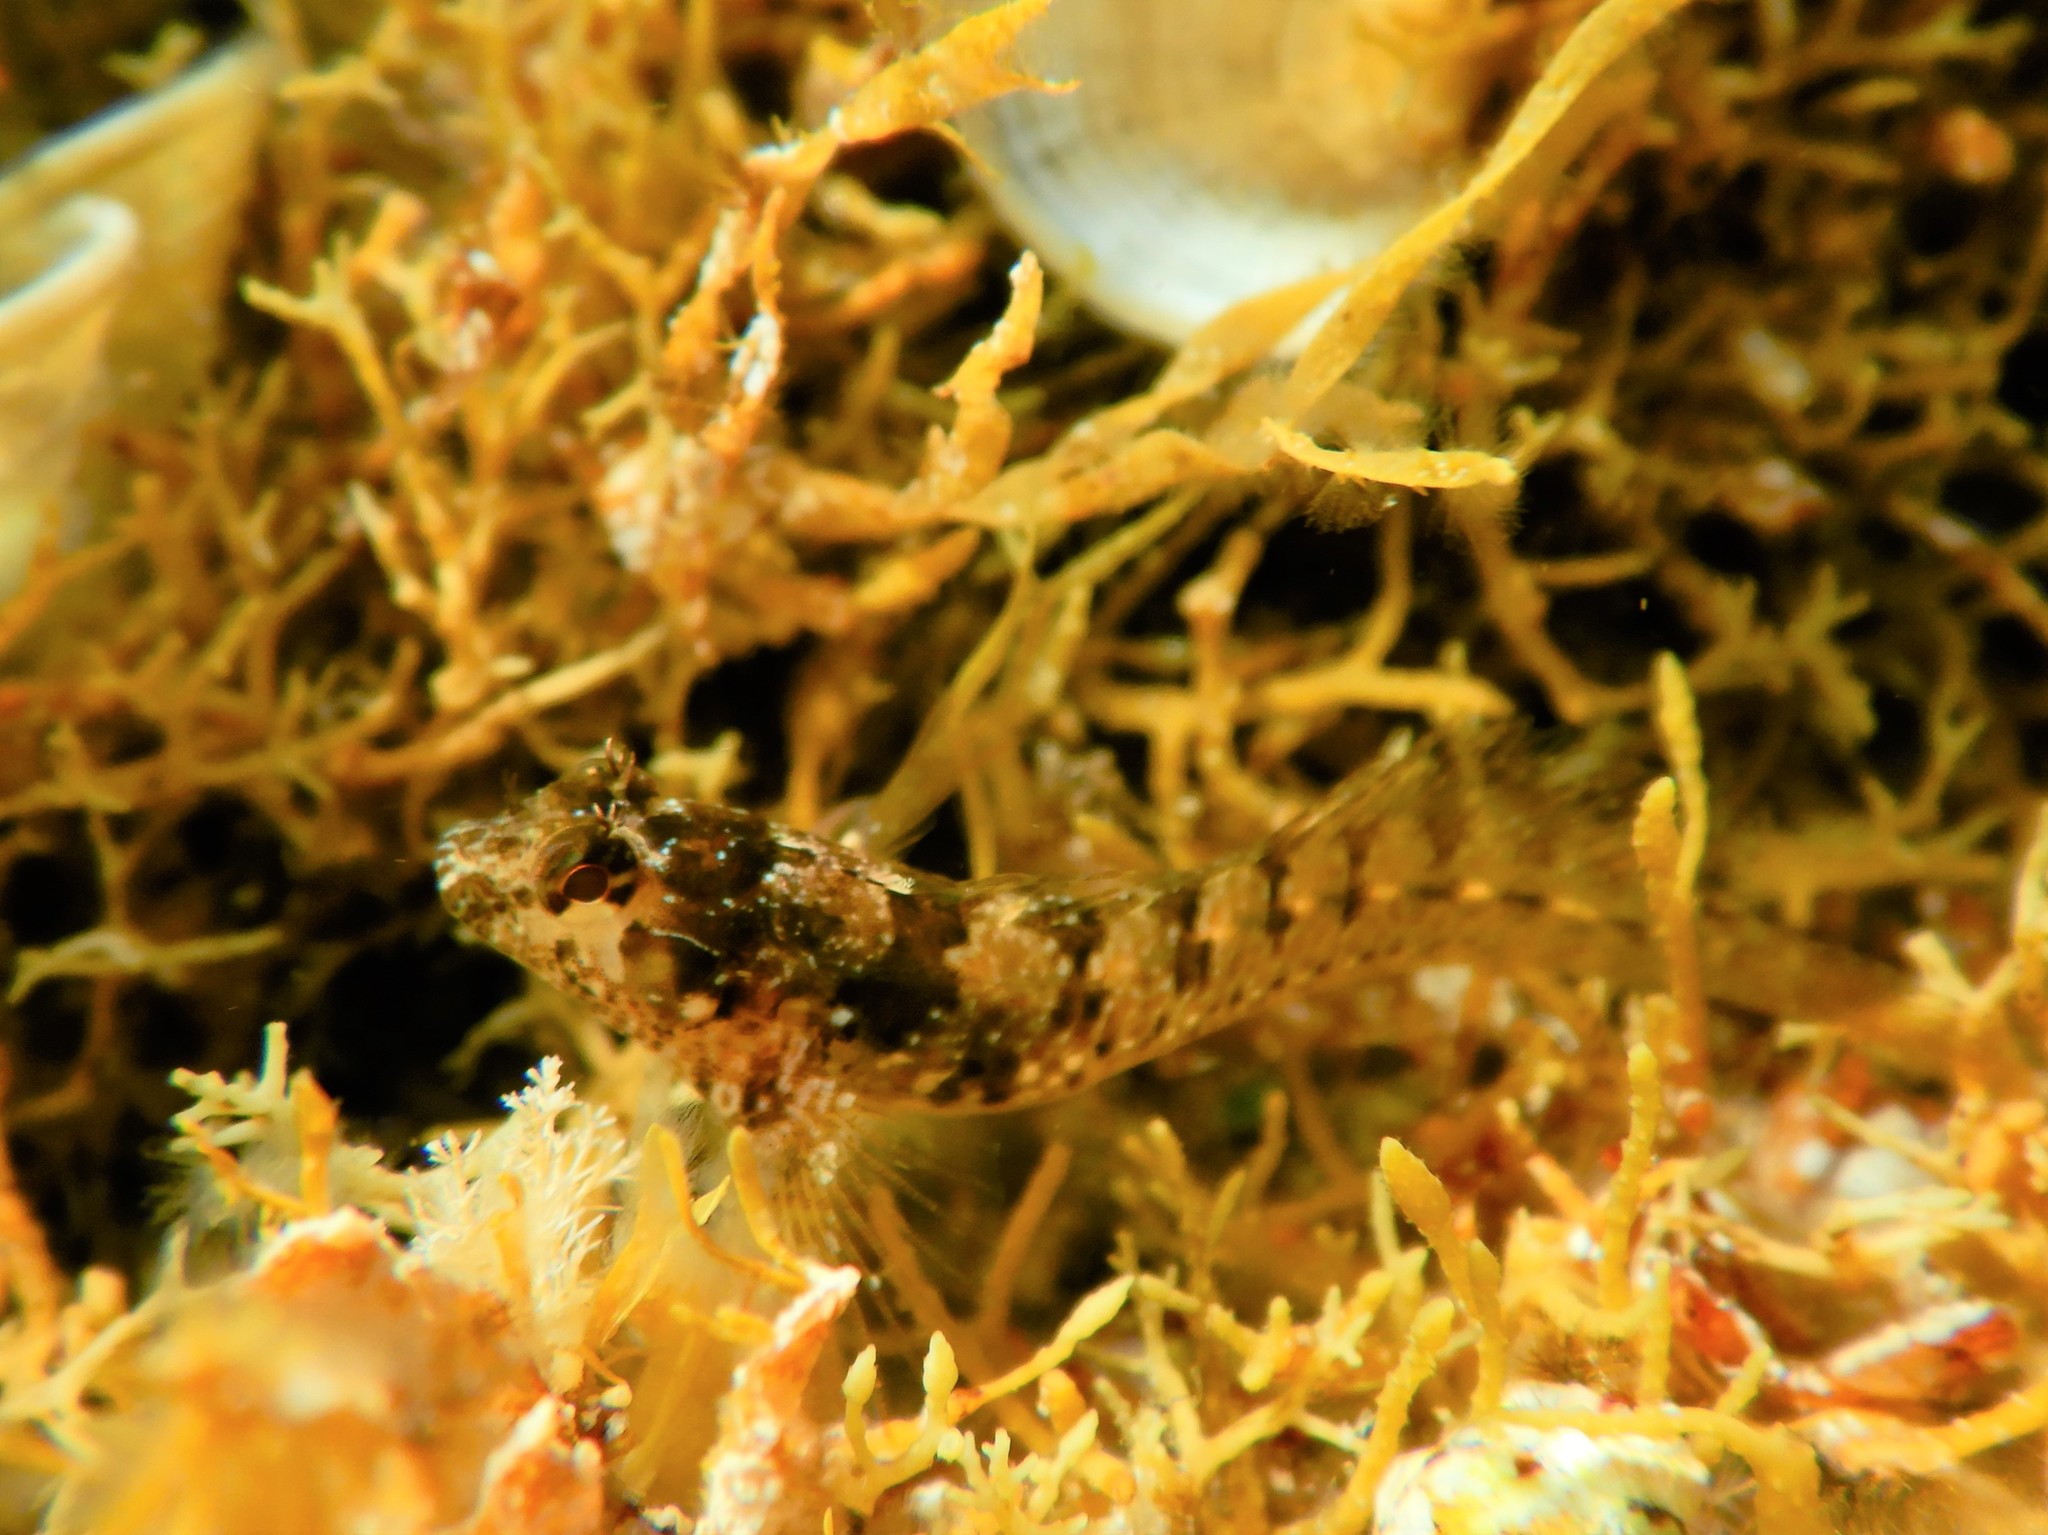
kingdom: Animalia
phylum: Chordata
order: Perciformes
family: Blenniidae
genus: Parablennius
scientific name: Parablennius incognitus
